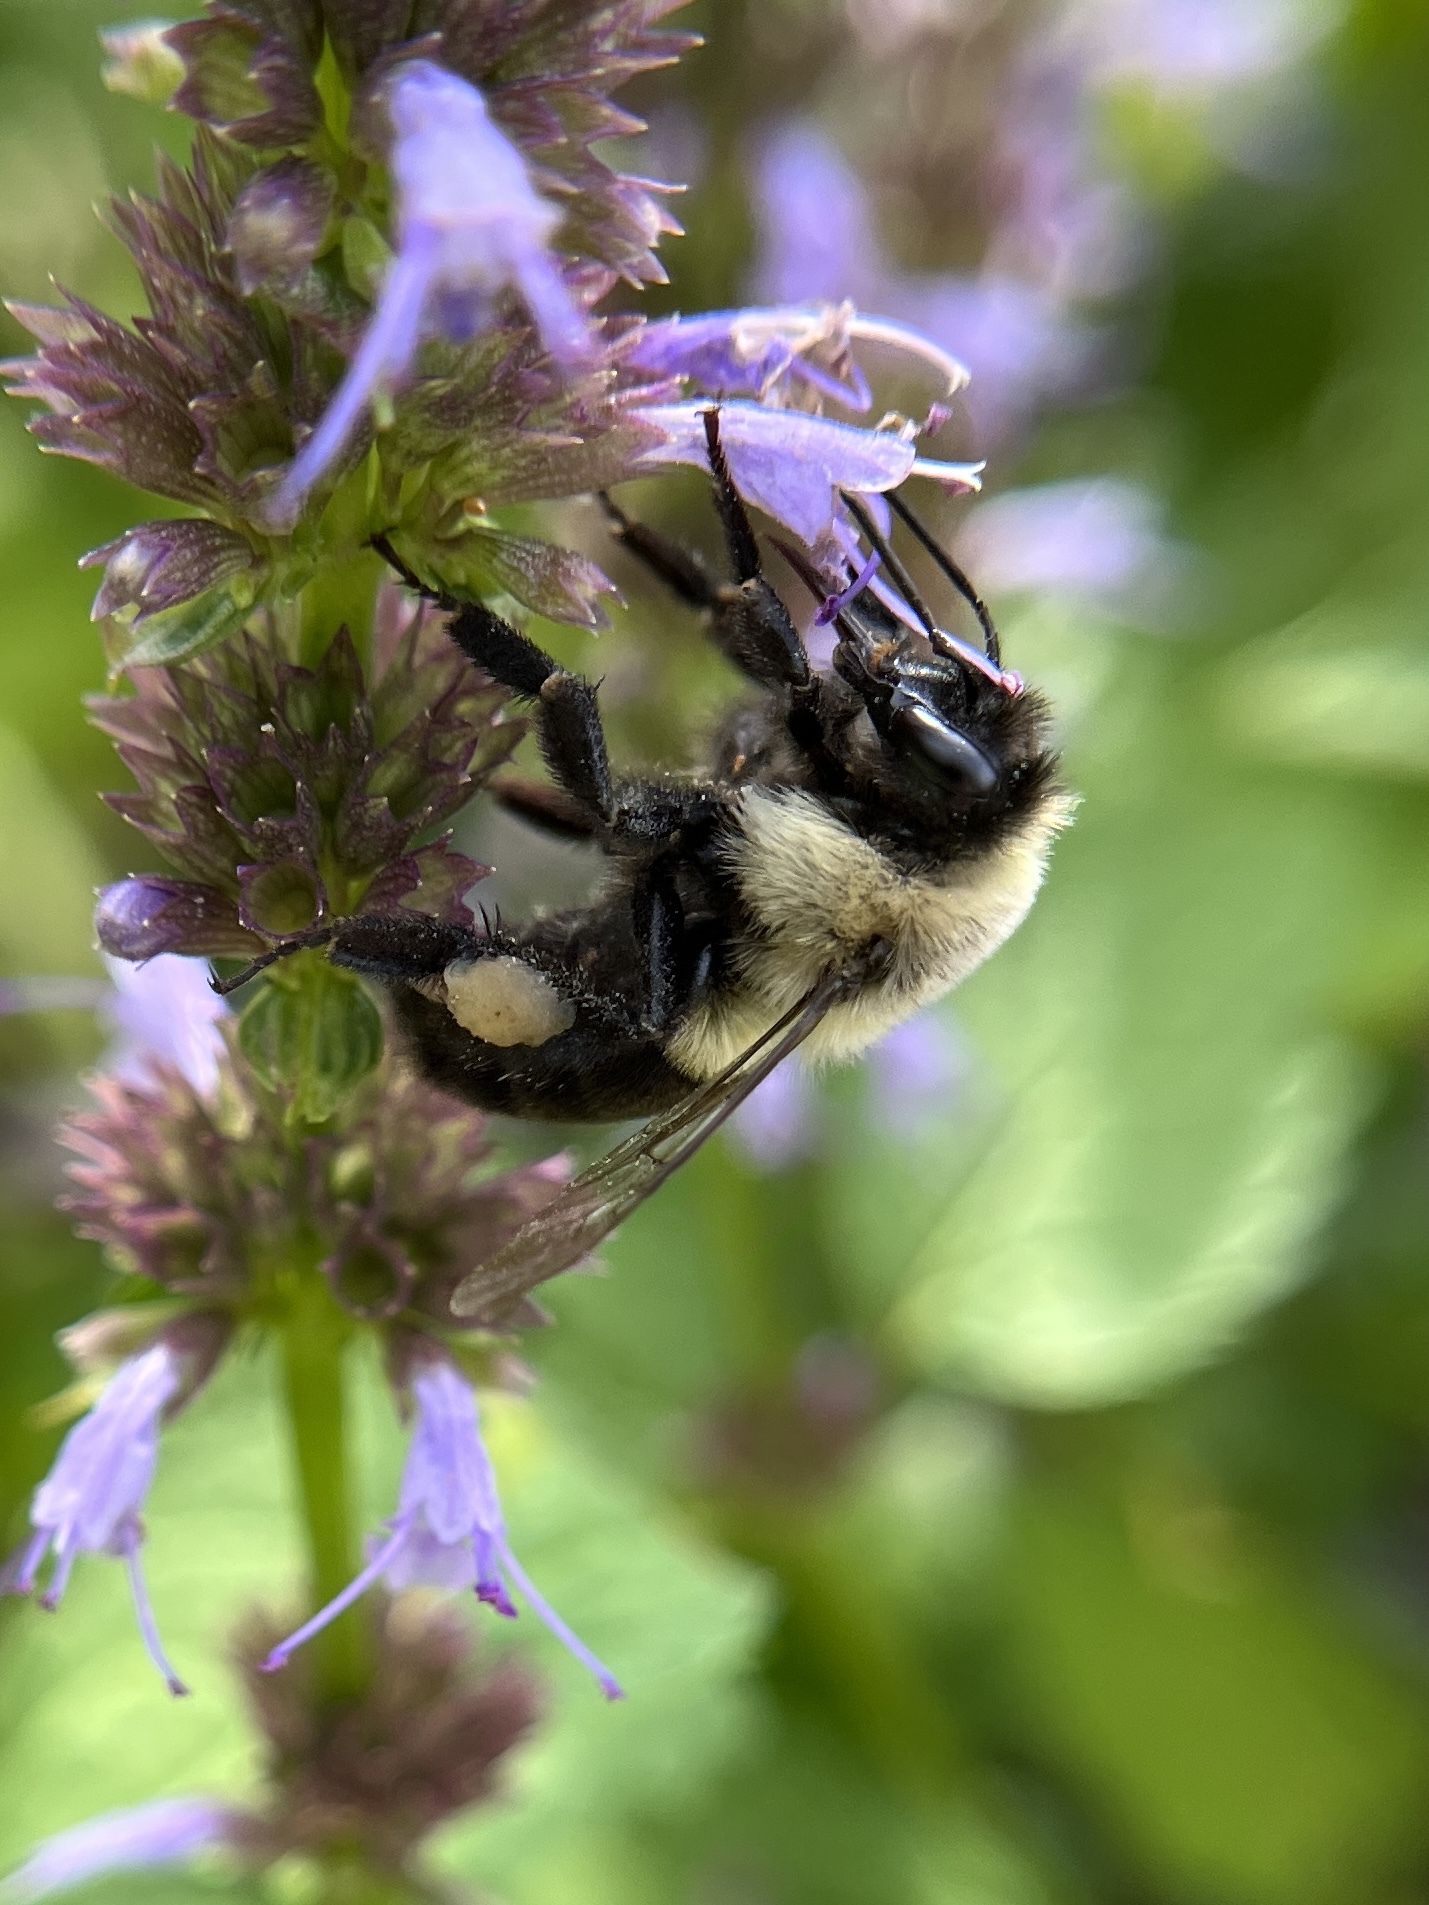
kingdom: Animalia
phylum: Arthropoda
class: Insecta
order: Hymenoptera
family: Apidae
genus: Bombus
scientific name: Bombus impatiens
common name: Common eastern bumble bee
